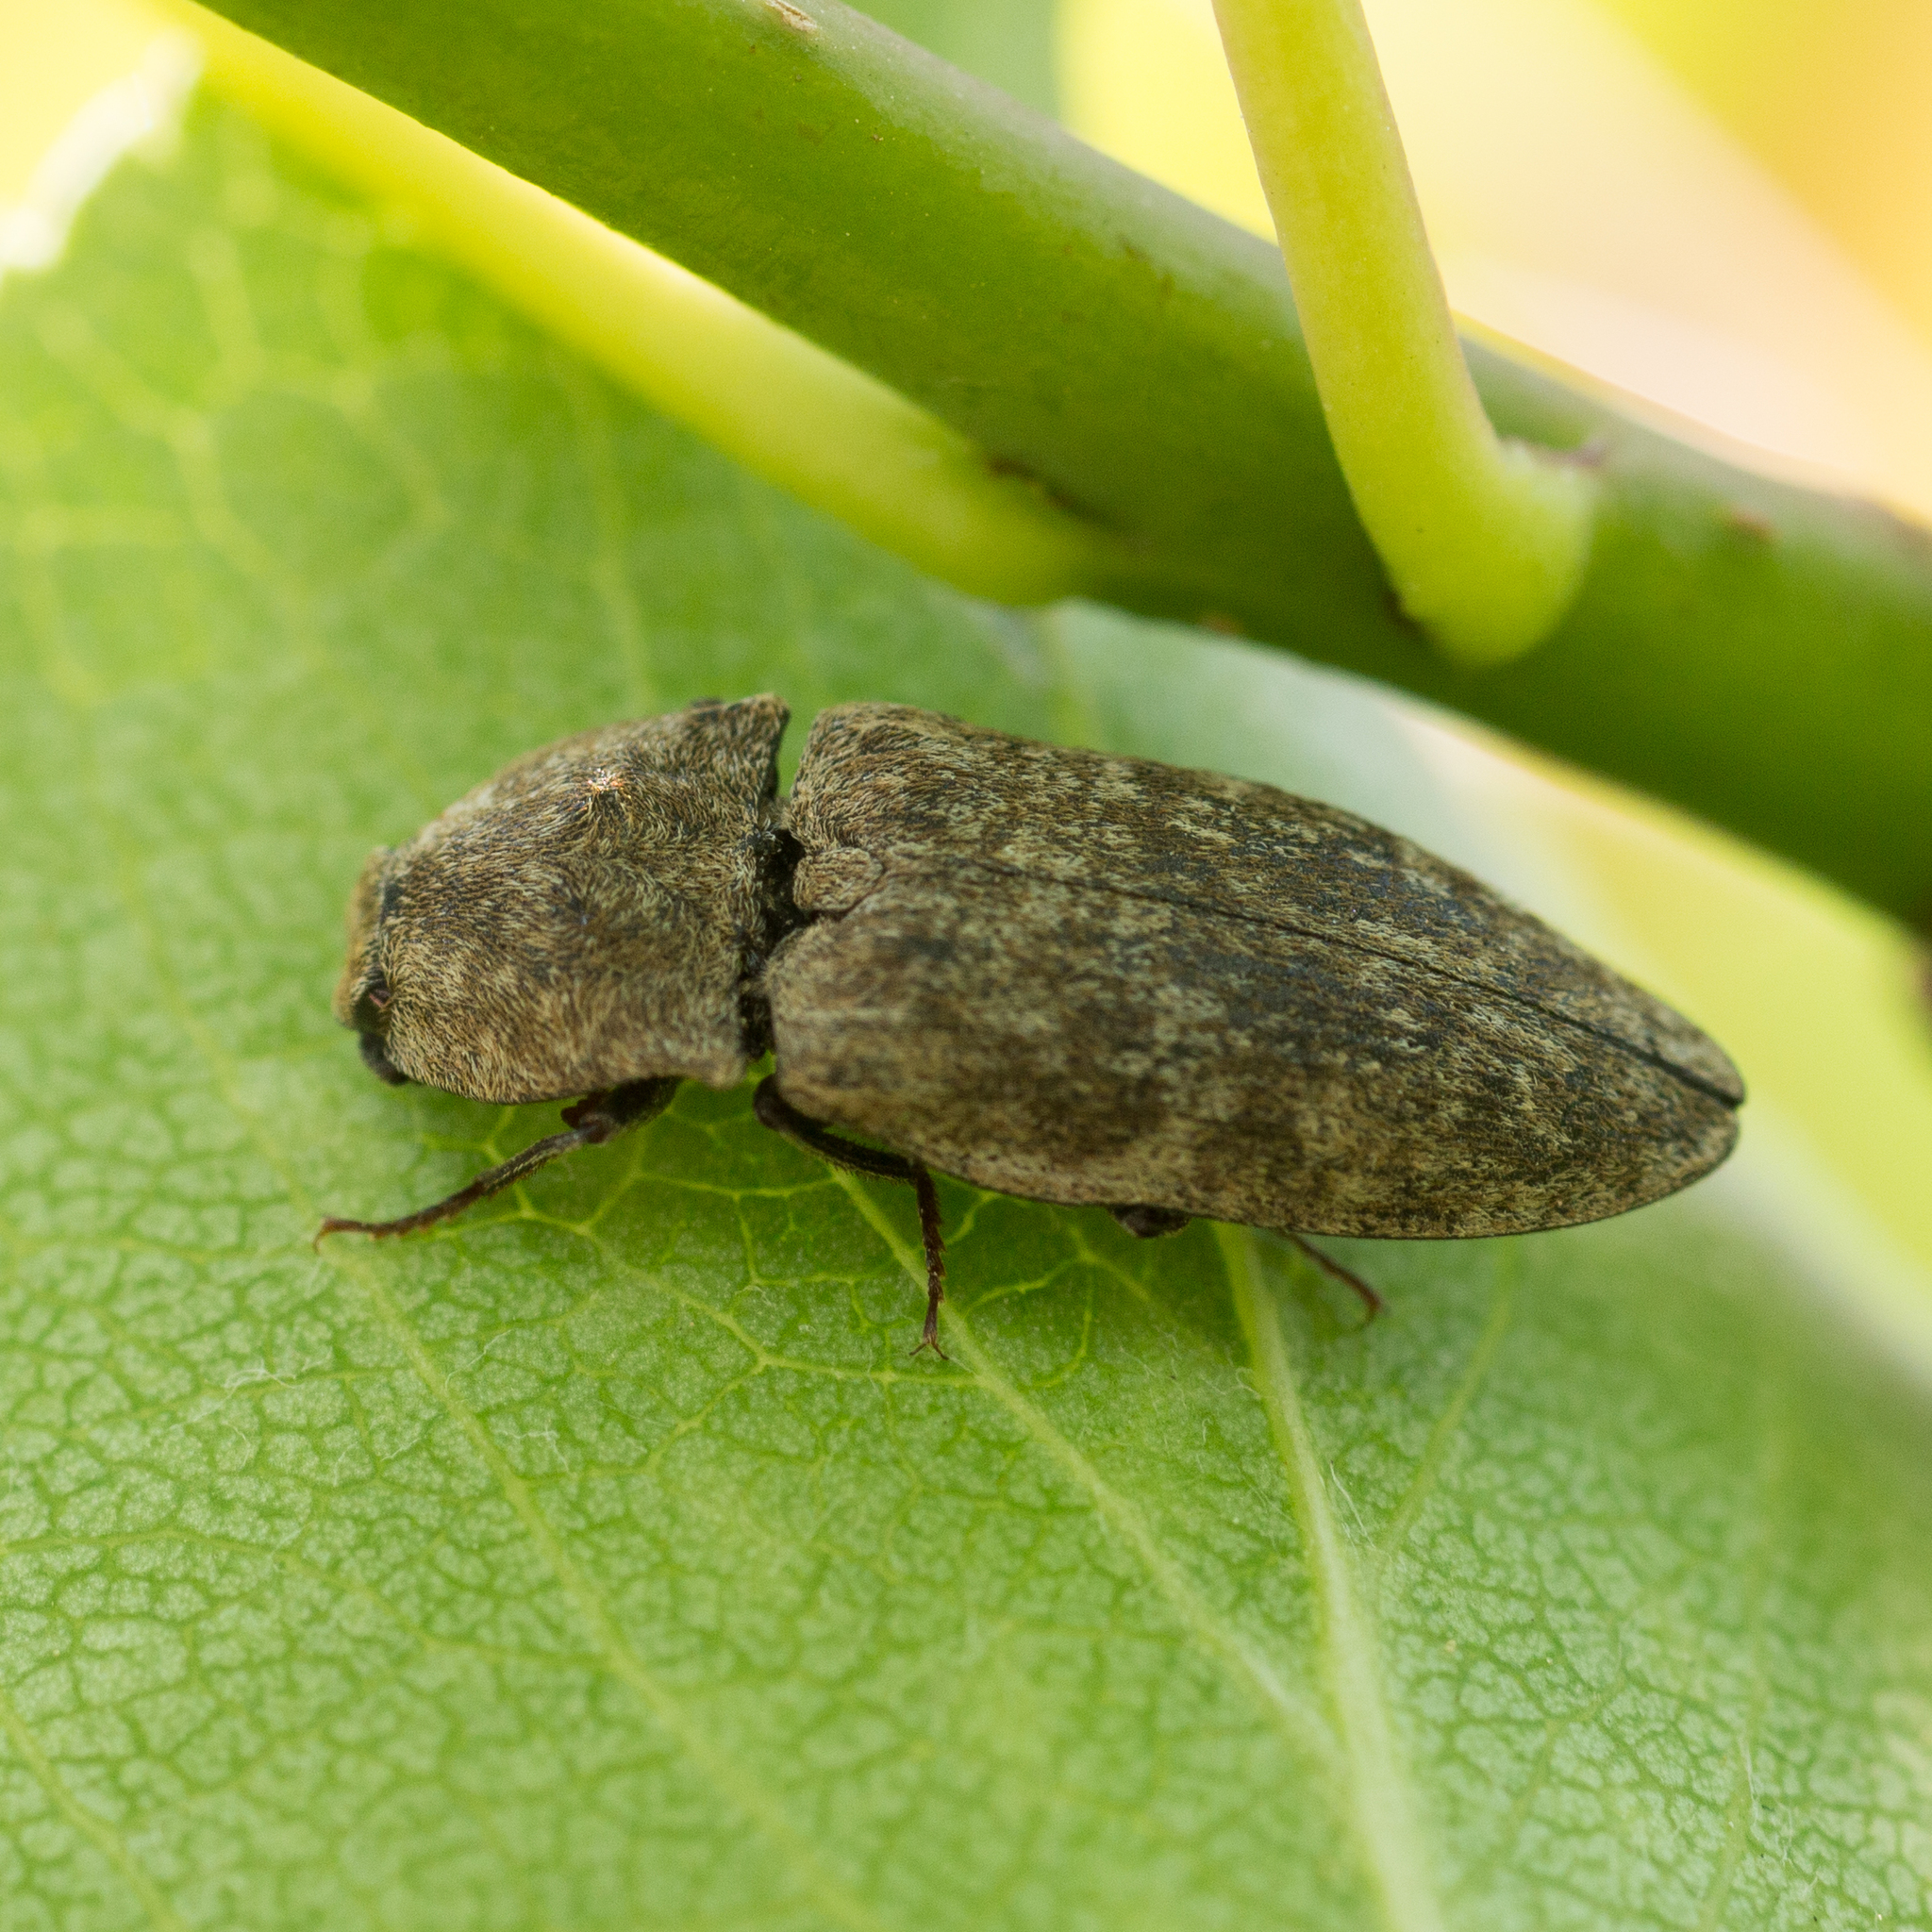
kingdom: Animalia
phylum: Arthropoda
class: Insecta
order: Coleoptera
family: Elateridae
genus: Agrypnus
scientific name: Agrypnus murinus
